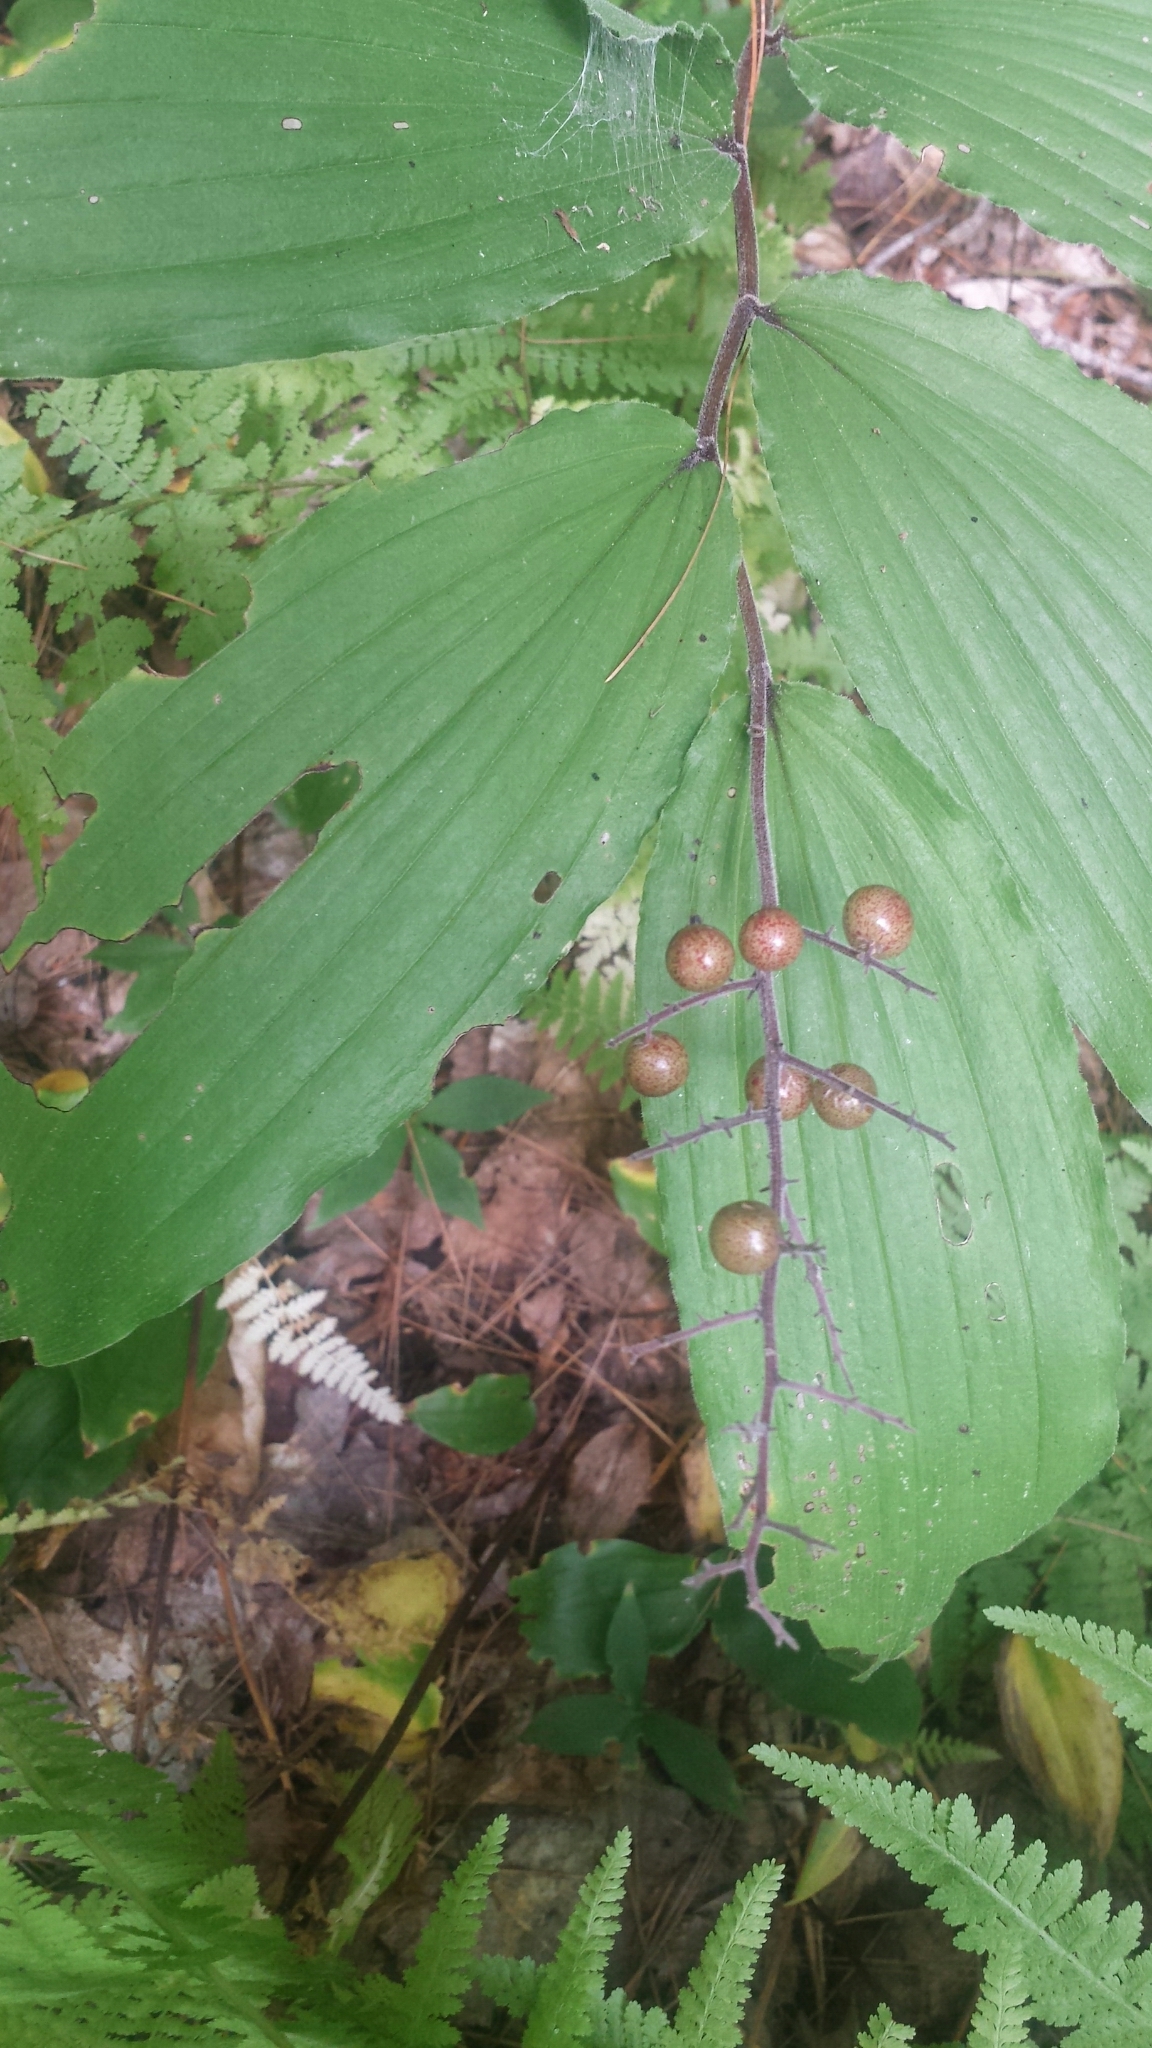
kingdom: Plantae
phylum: Tracheophyta
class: Liliopsida
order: Asparagales
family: Asparagaceae
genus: Maianthemum
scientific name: Maianthemum racemosum
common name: False spikenard
